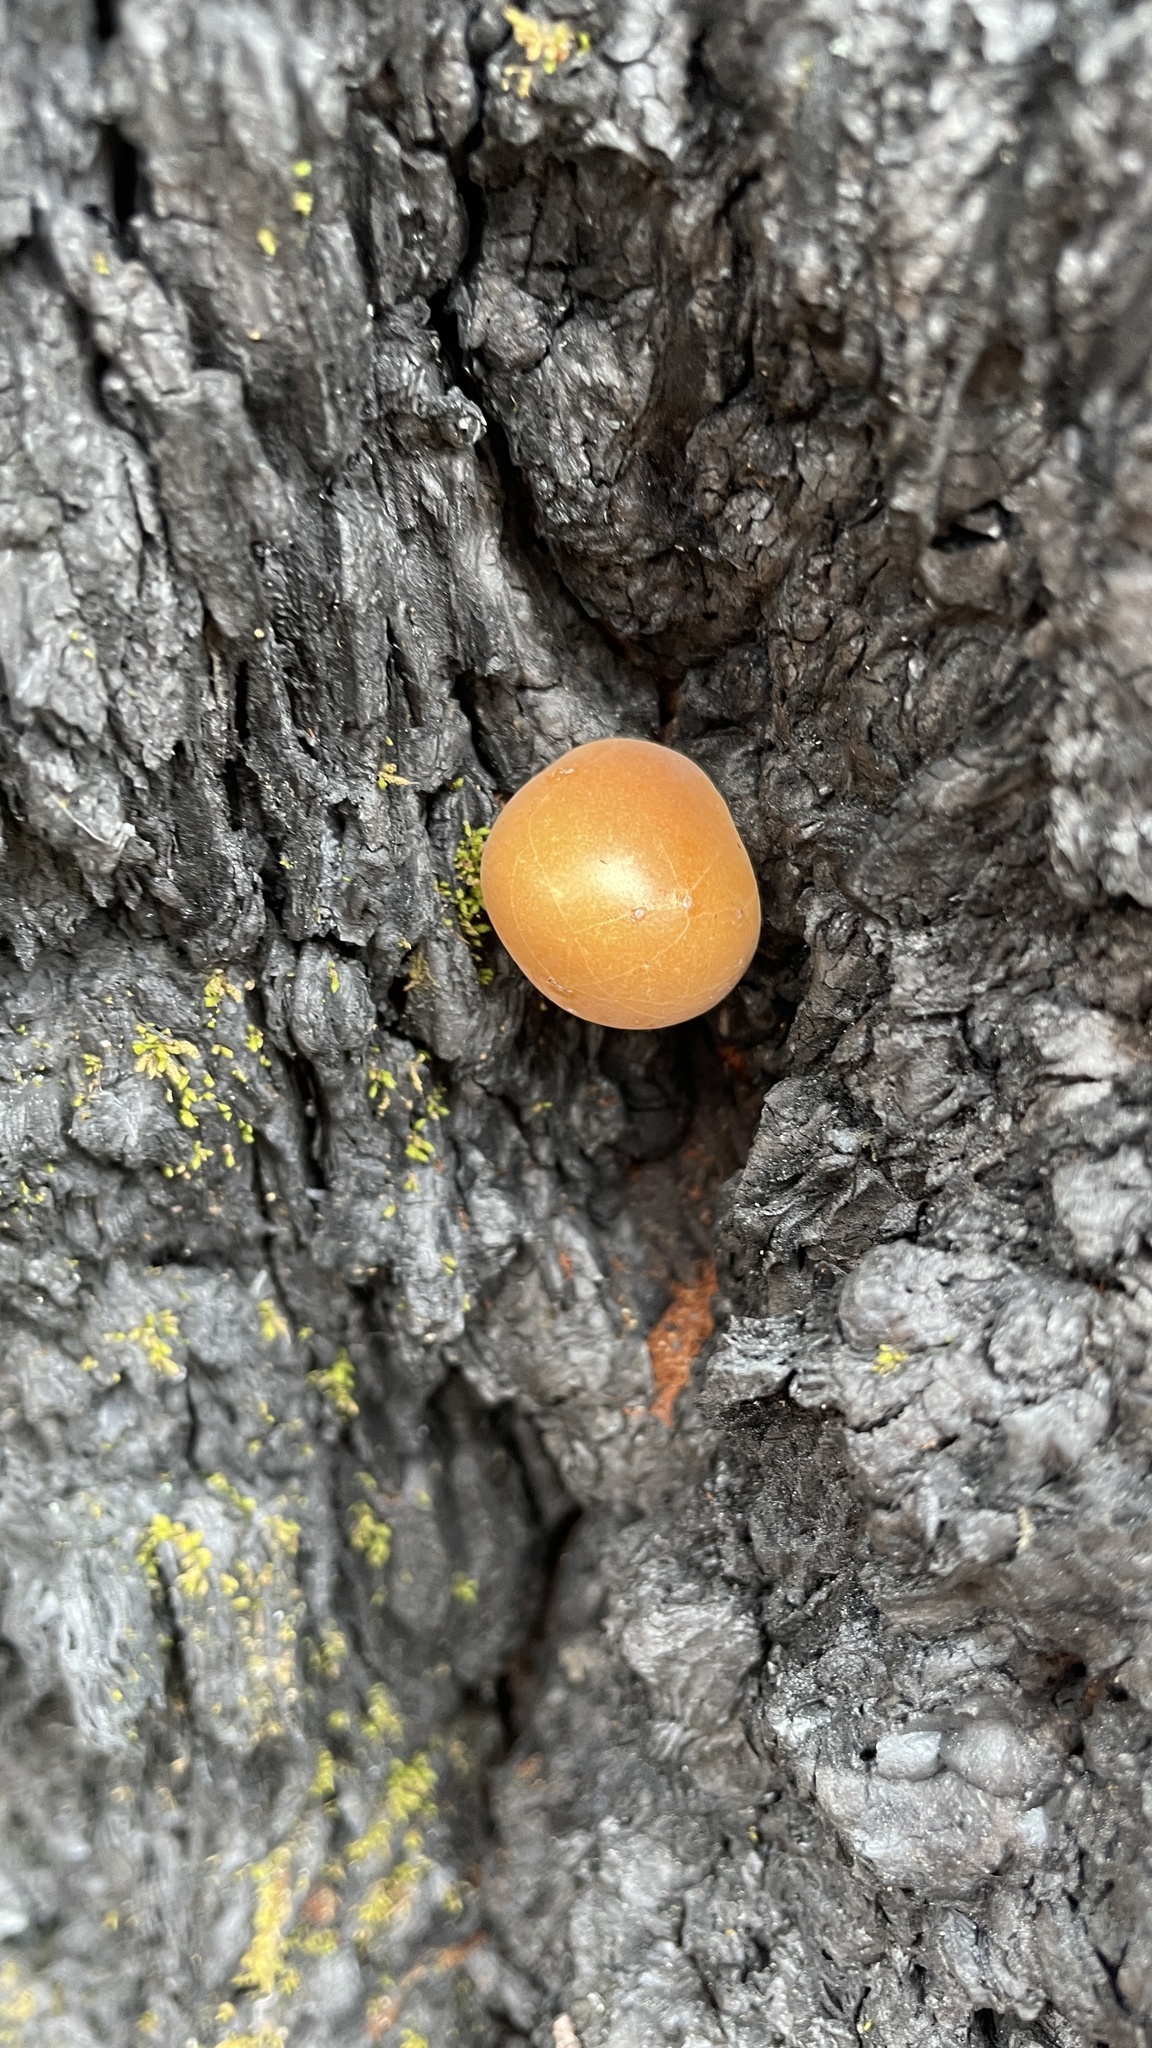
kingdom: Fungi
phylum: Basidiomycota
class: Agaricomycetes
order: Polyporales
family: Polyporaceae
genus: Cryptoporus
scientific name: Cryptoporus volvatus
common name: Veiled polypore
